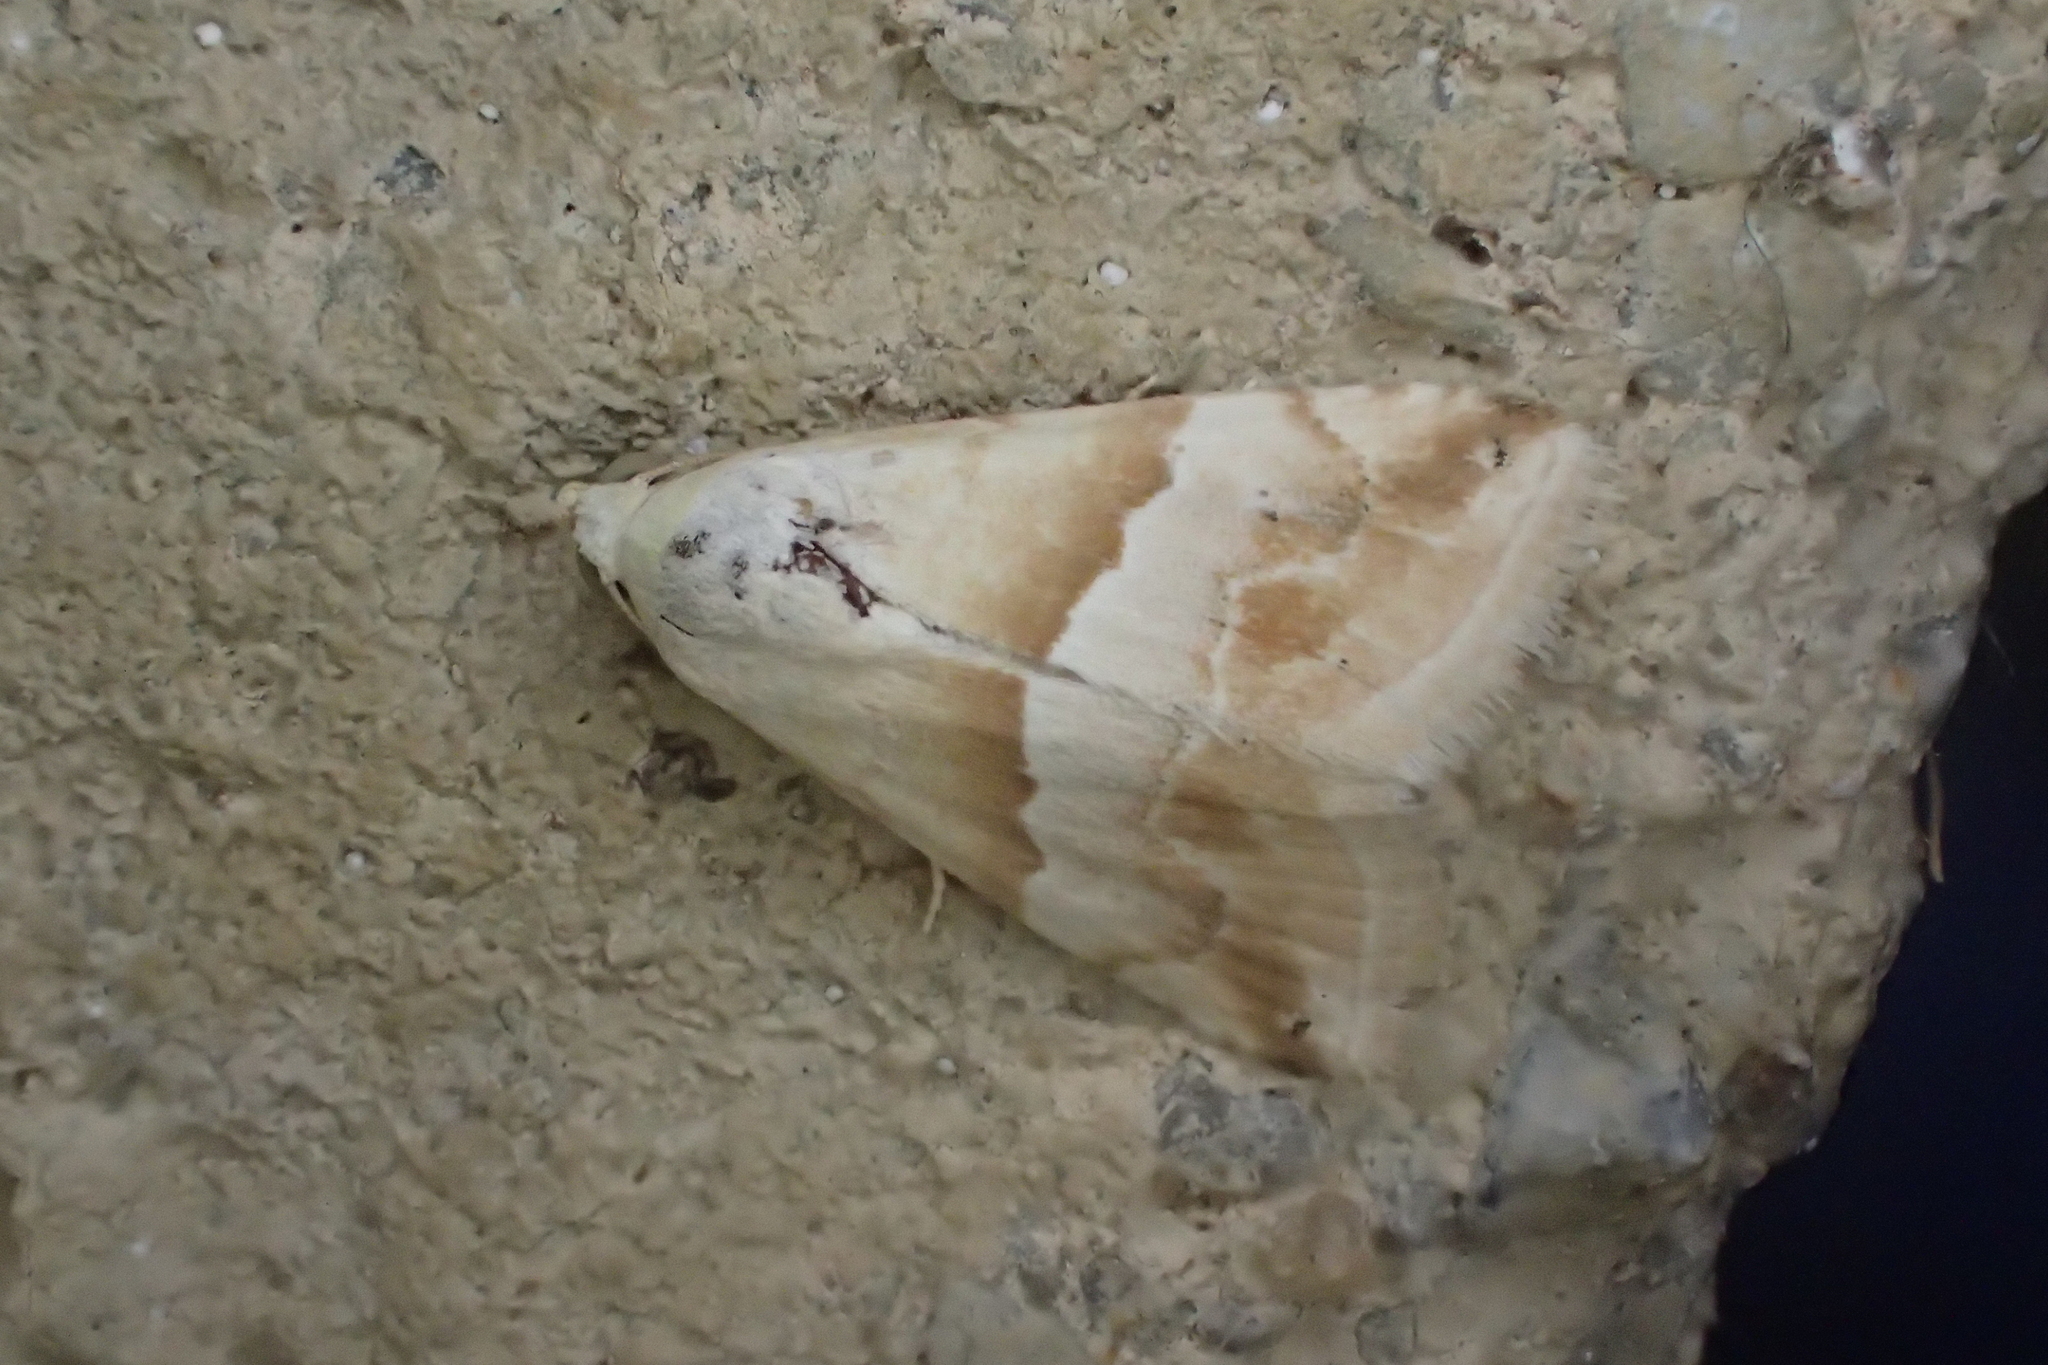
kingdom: Animalia
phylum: Arthropoda
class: Insecta
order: Lepidoptera
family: Noctuidae
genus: Eublemma
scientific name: Eublemma parva
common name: Small marbled
